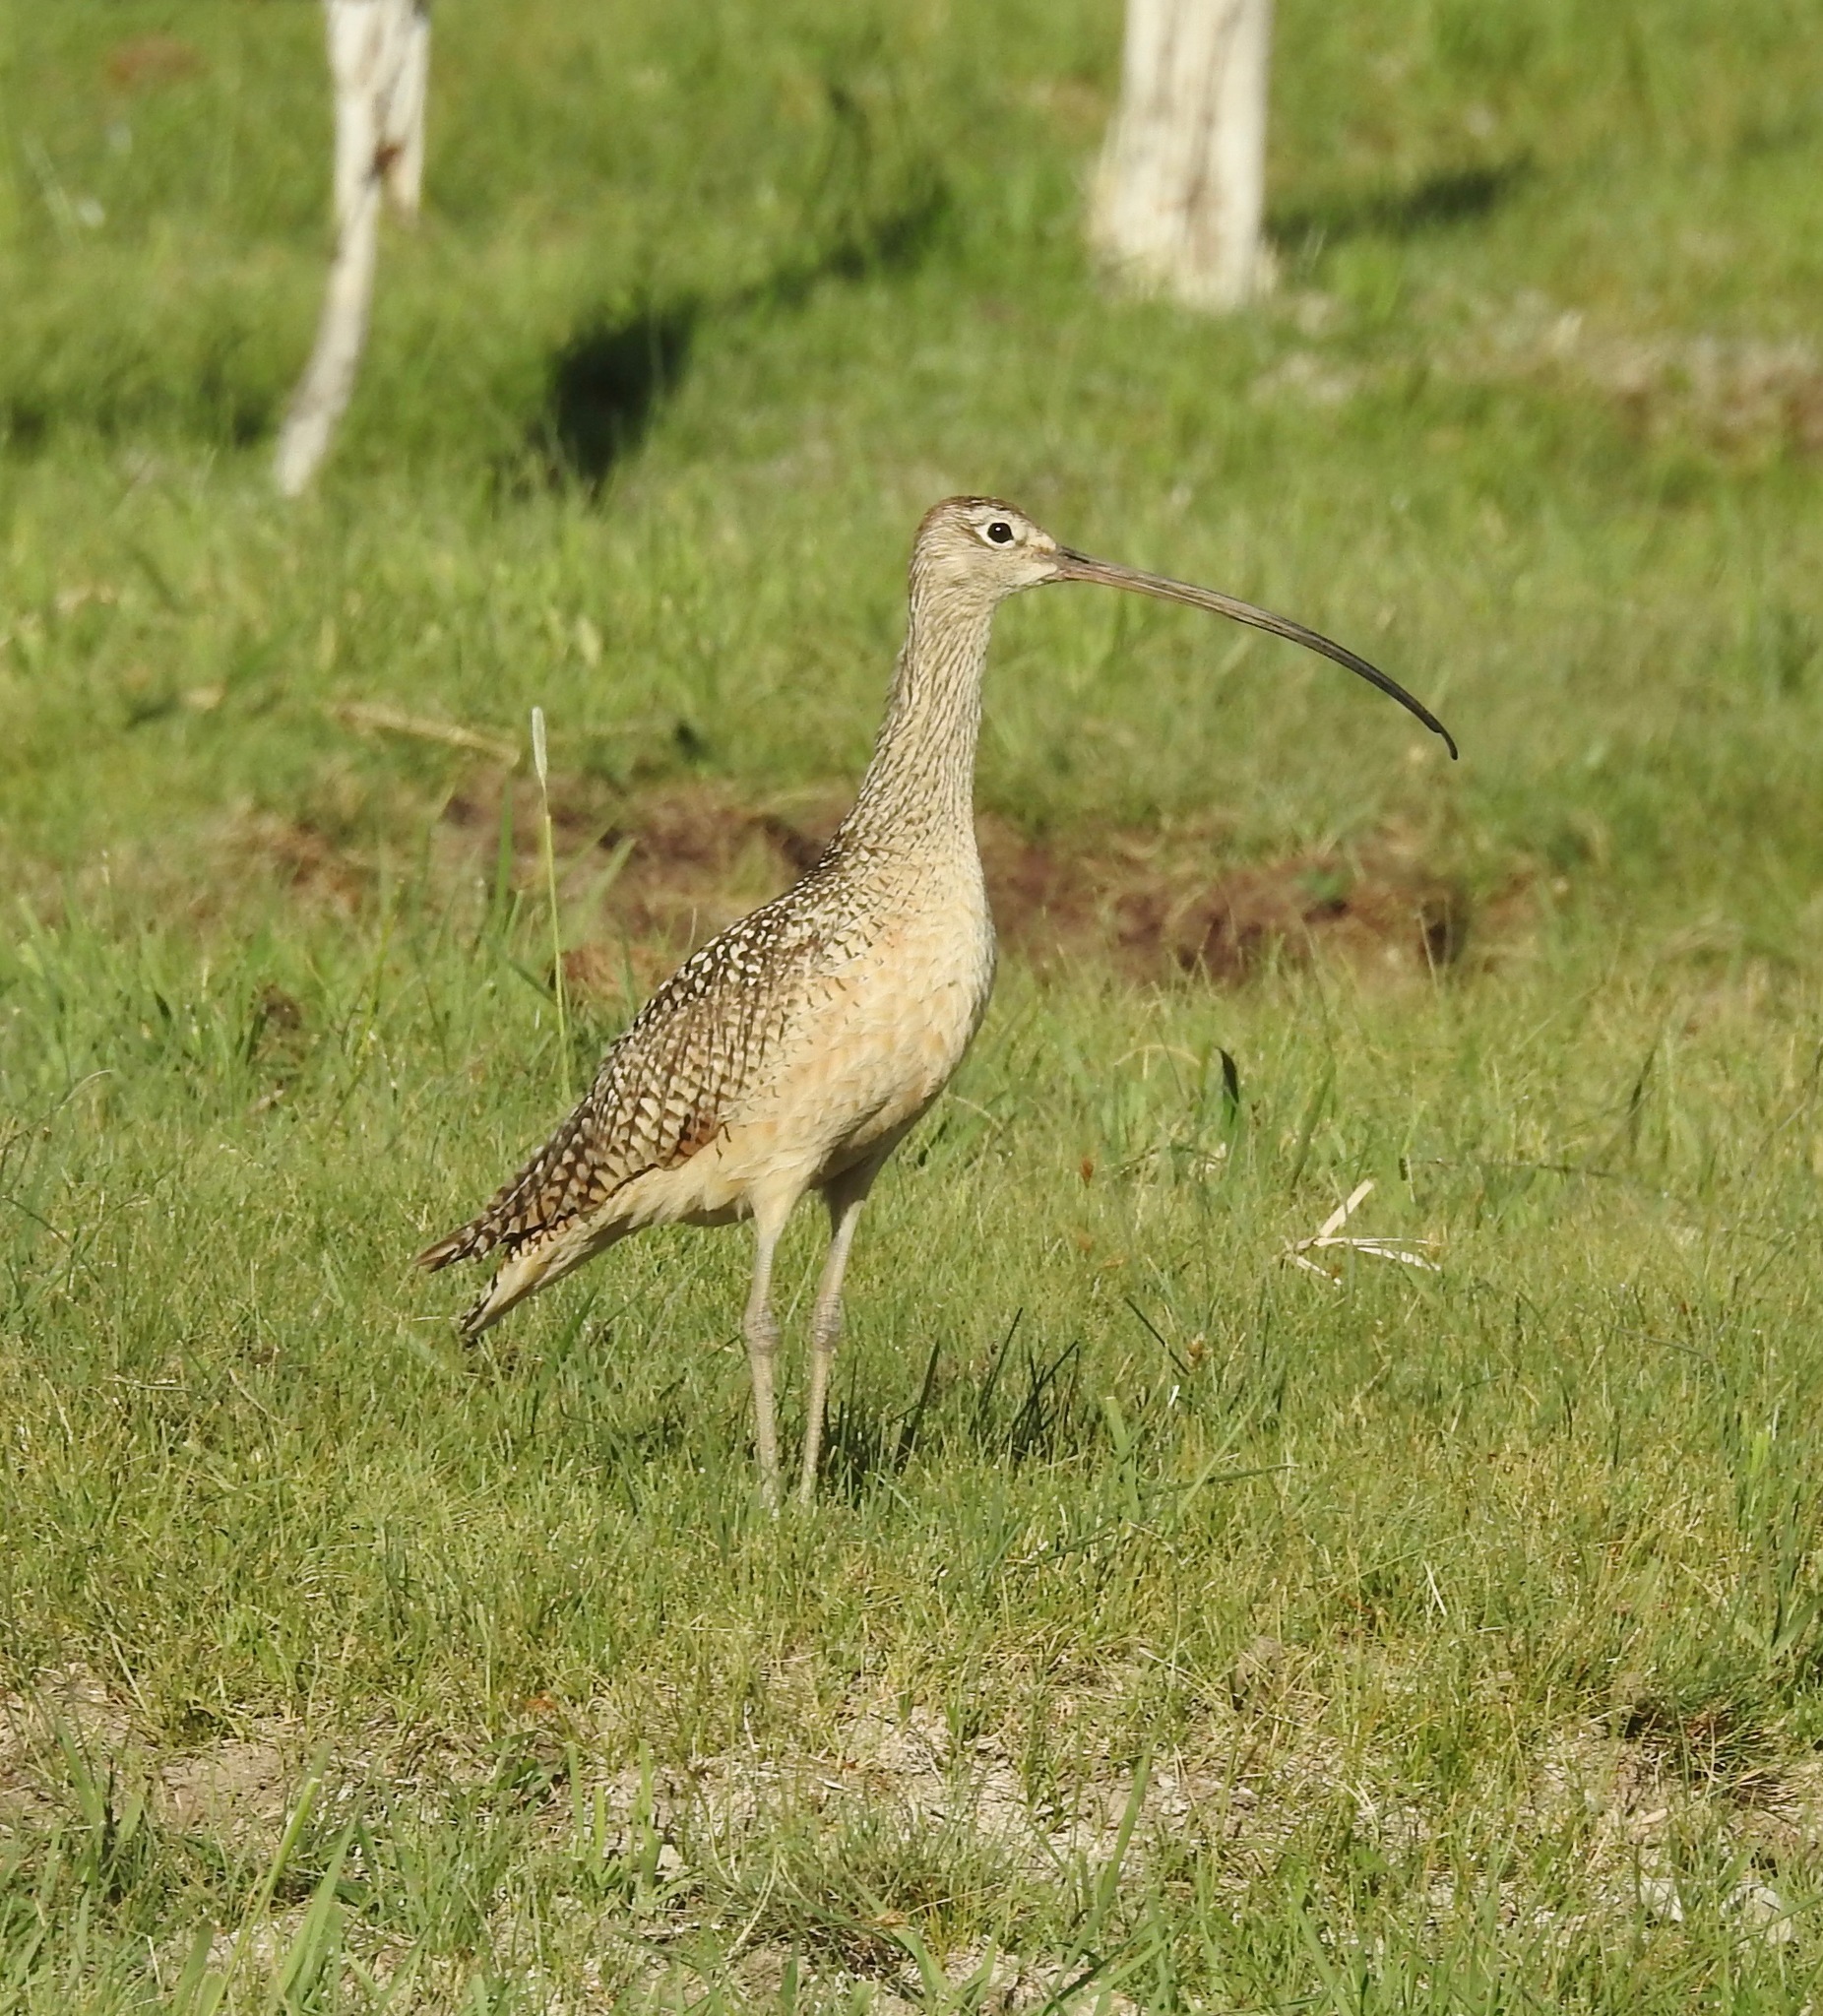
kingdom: Animalia
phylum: Chordata
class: Aves
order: Charadriiformes
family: Scolopacidae
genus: Numenius
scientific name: Numenius americanus
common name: Long-billed curlew
